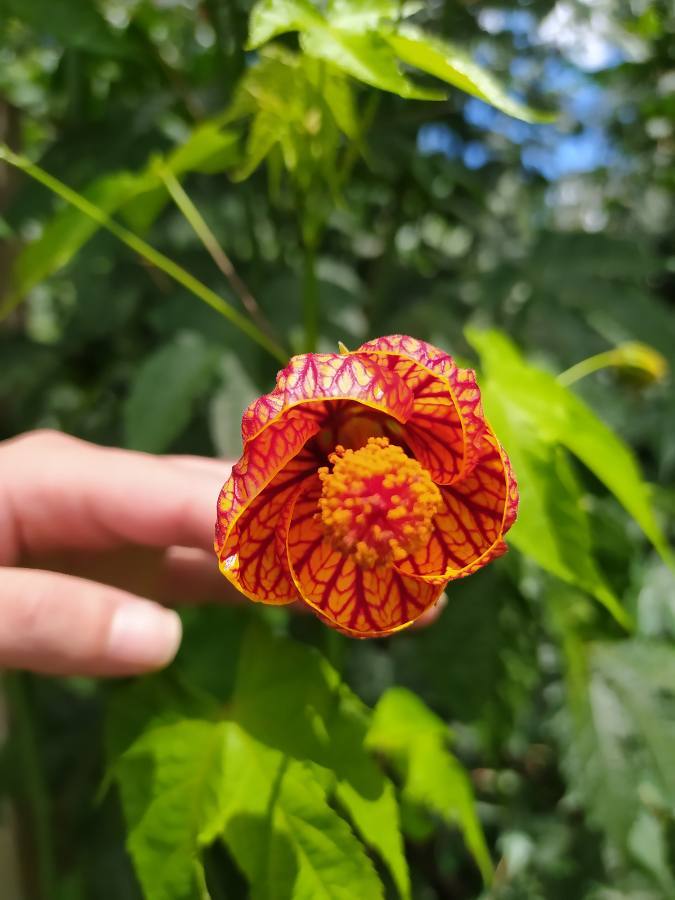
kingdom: Plantae
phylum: Tracheophyta
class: Magnoliopsida
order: Malvales
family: Malvaceae
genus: Callianthe
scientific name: Callianthe picta
